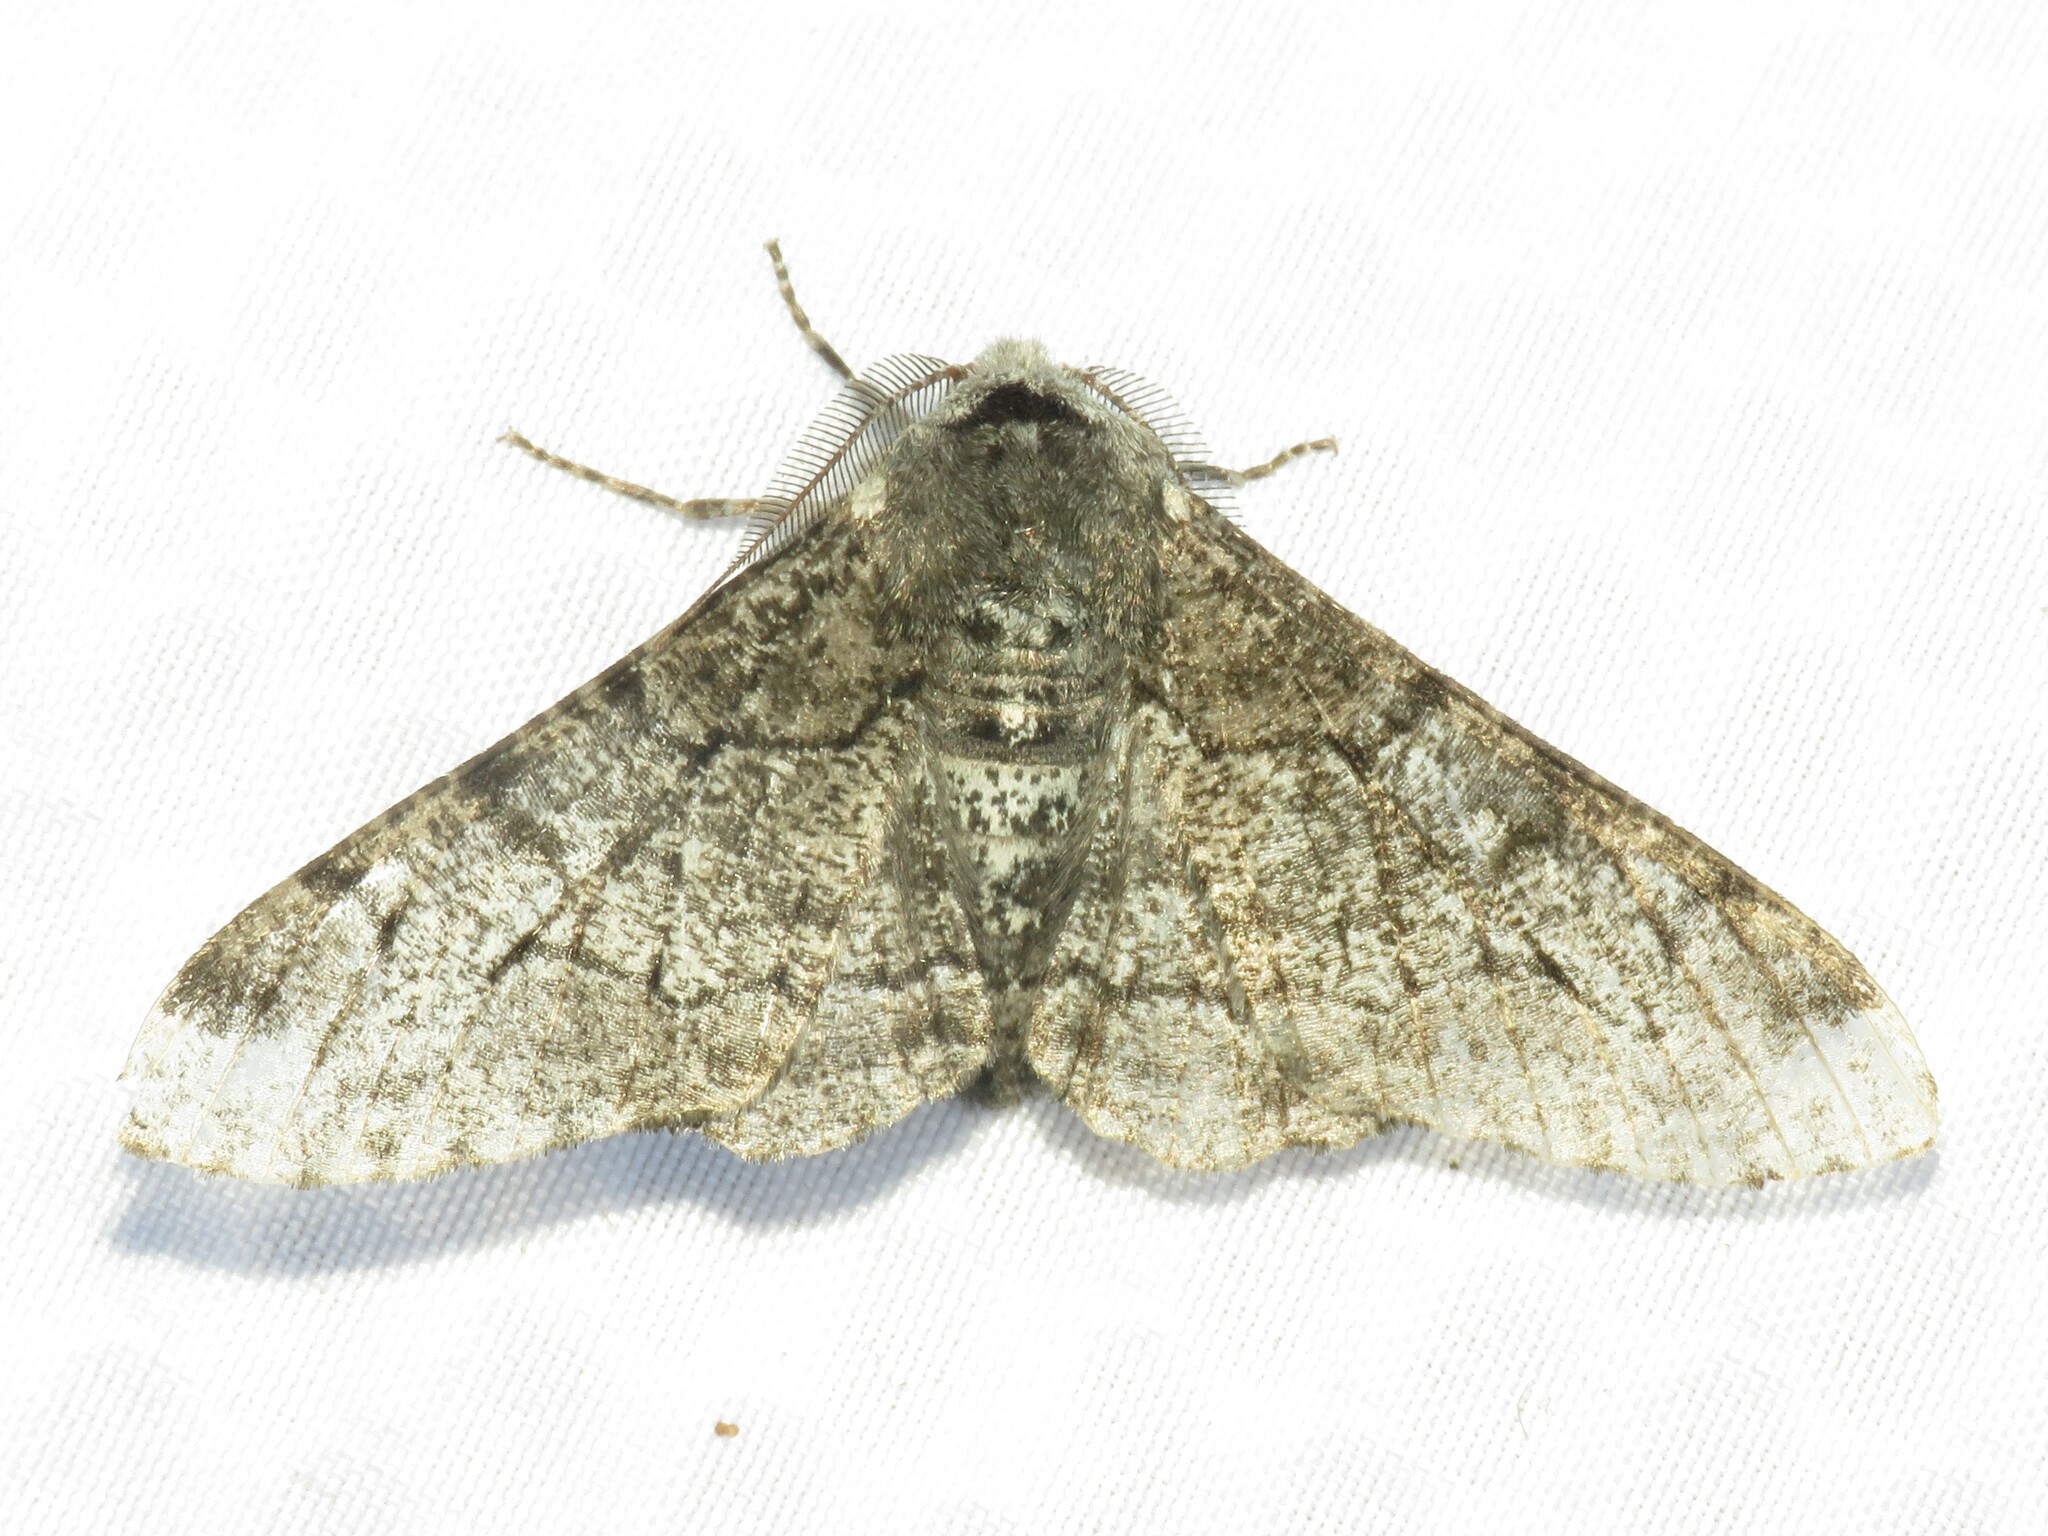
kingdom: Animalia
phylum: Arthropoda
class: Insecta
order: Lepidoptera
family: Geometridae
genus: Biston
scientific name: Biston betularia
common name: Peppered moth
